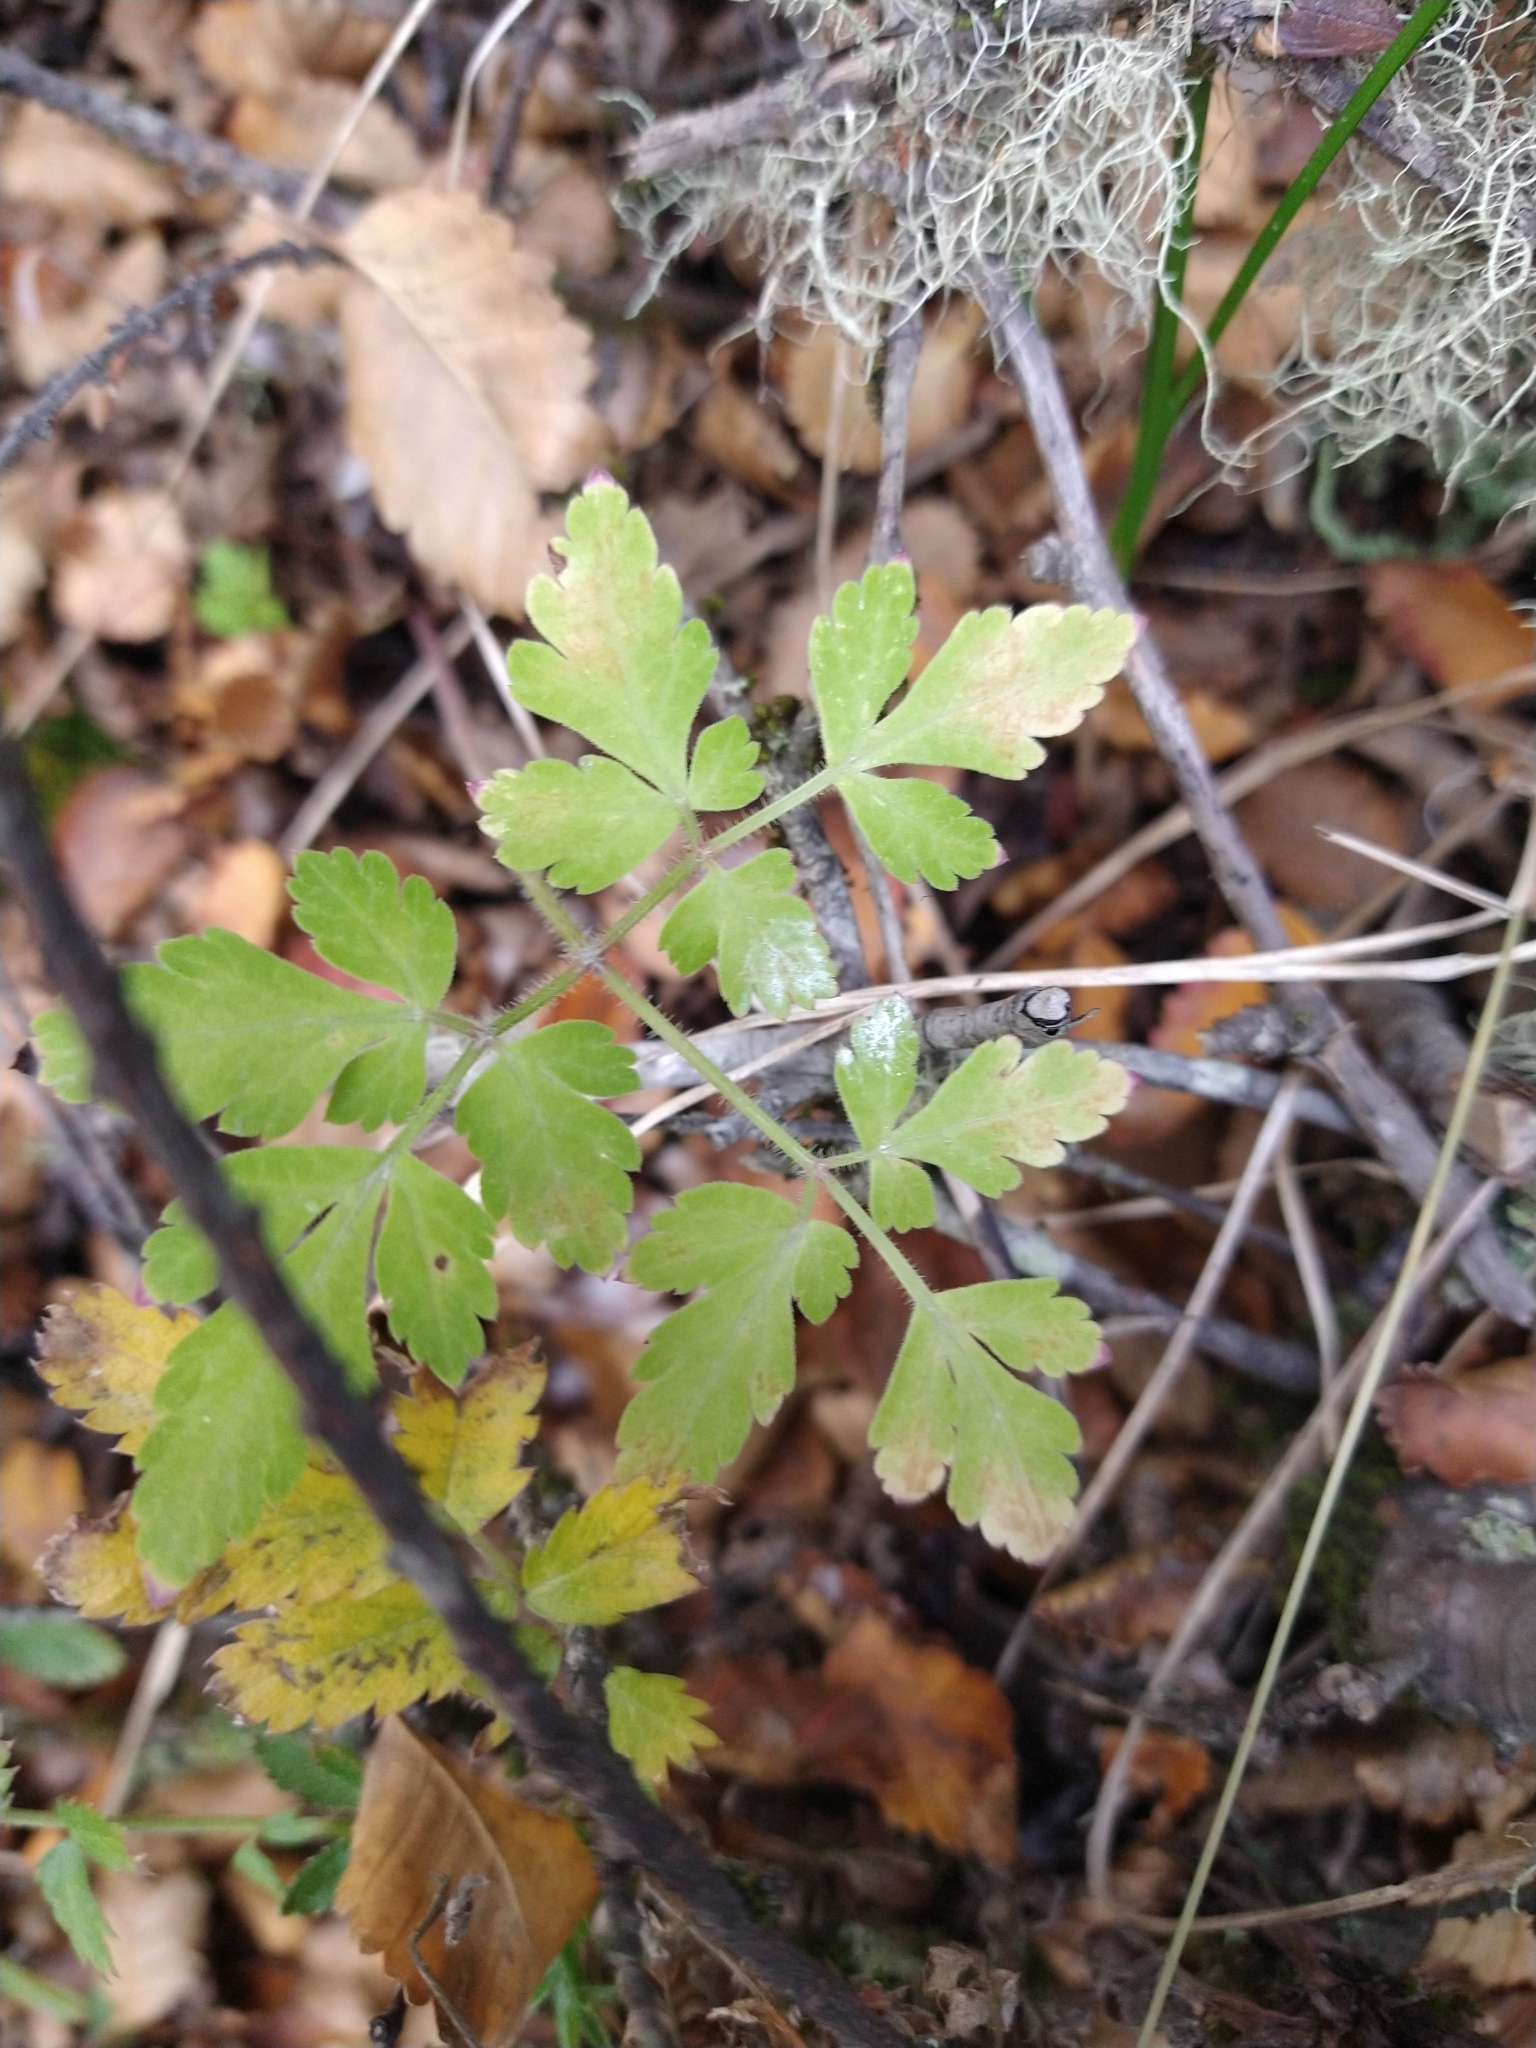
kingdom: Plantae
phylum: Tracheophyta
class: Magnoliopsida
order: Apiales
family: Apiaceae
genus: Osmorhiza
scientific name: Osmorhiza berteroi
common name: Mountain sweet cicely
